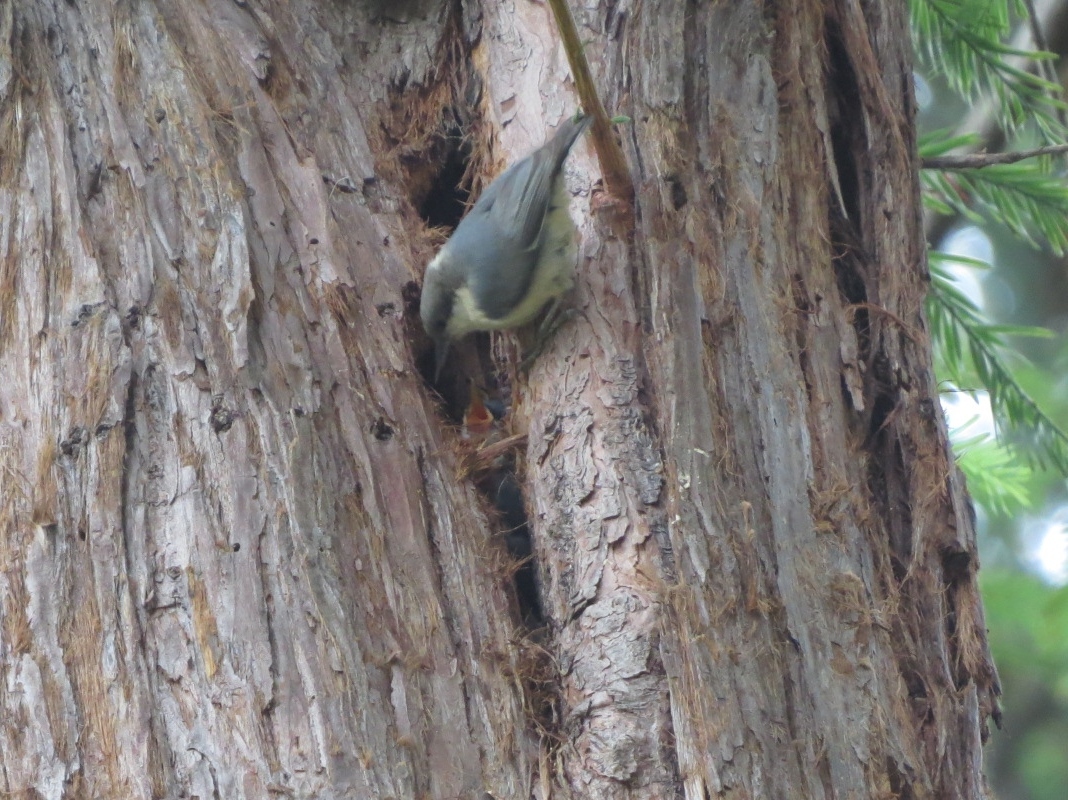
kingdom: Animalia
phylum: Chordata
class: Aves
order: Passeriformes
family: Sittidae
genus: Sitta
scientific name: Sitta pygmaea
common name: Pygmy nuthatch
